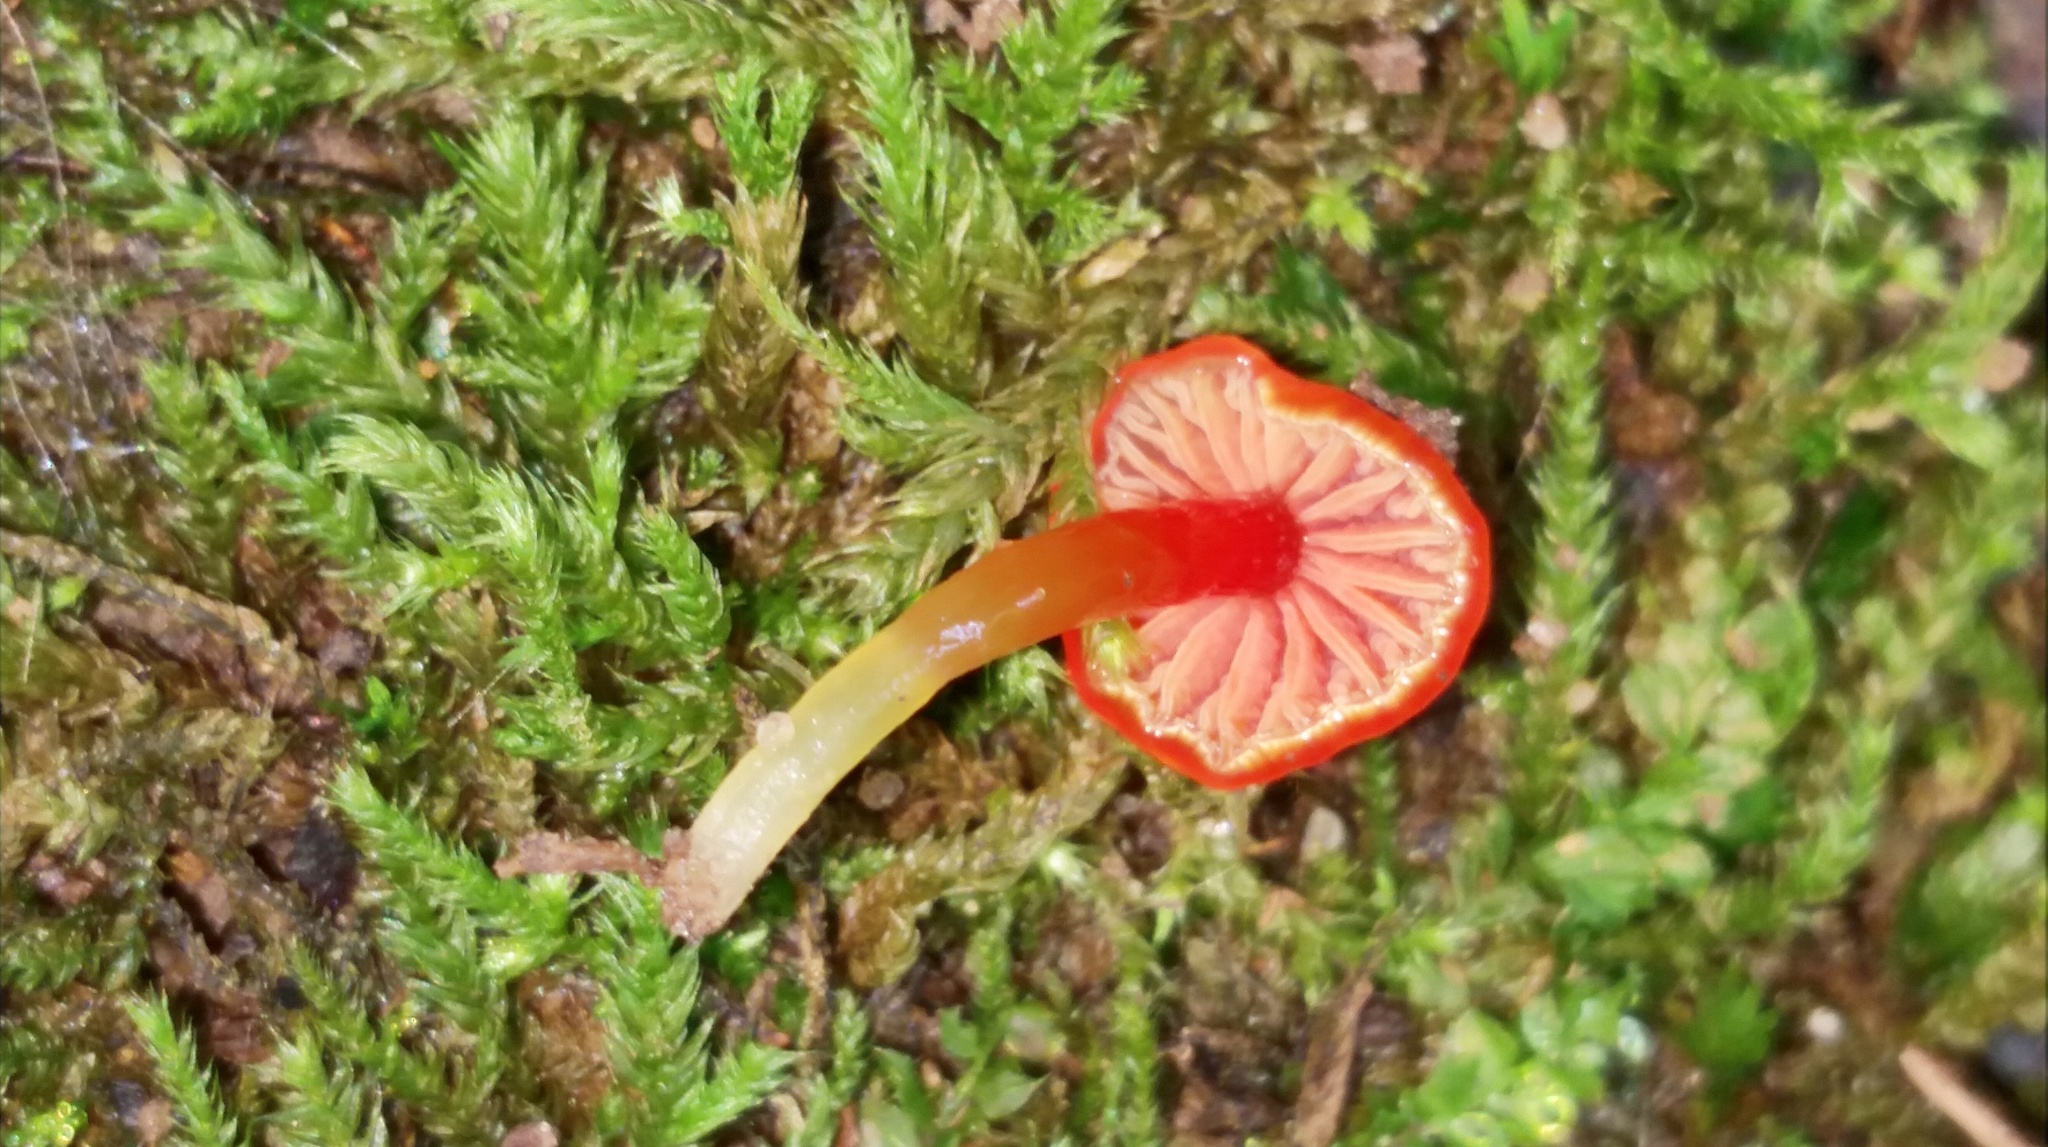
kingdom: Fungi
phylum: Basidiomycota
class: Agaricomycetes
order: Agaricales
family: Hygrophoraceae
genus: Hygrocybe
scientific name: Hygrocybe minutula
